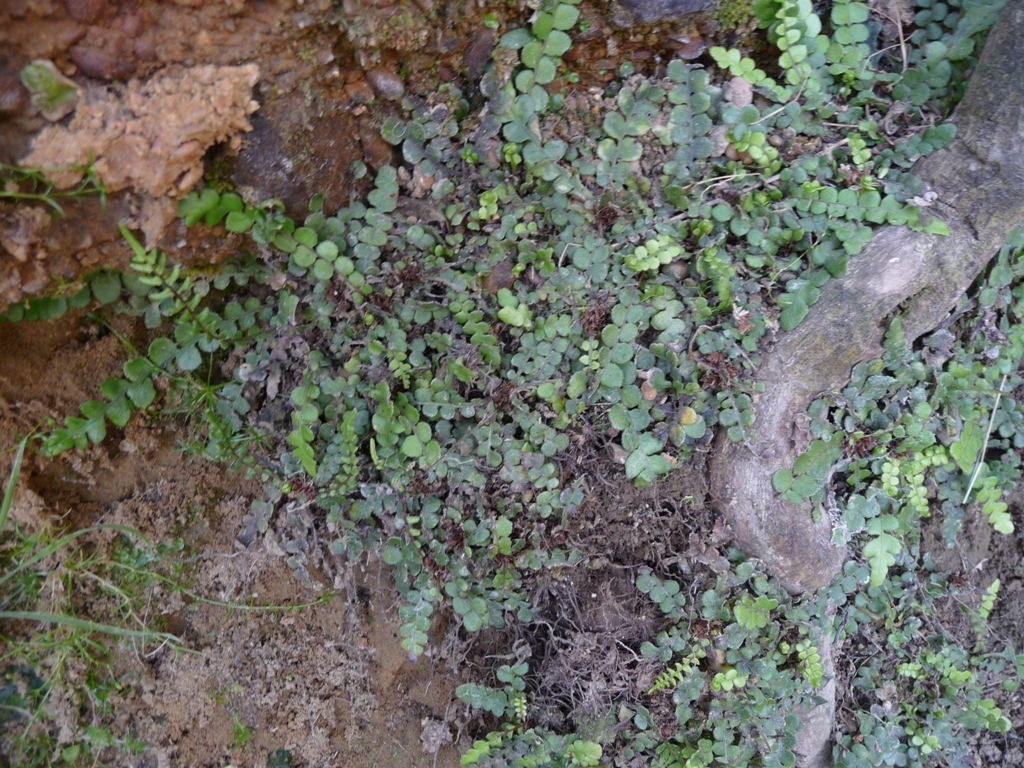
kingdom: Plantae
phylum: Tracheophyta
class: Polypodiopsida
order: Polypodiales
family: Blechnaceae
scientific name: Blechnaceae
